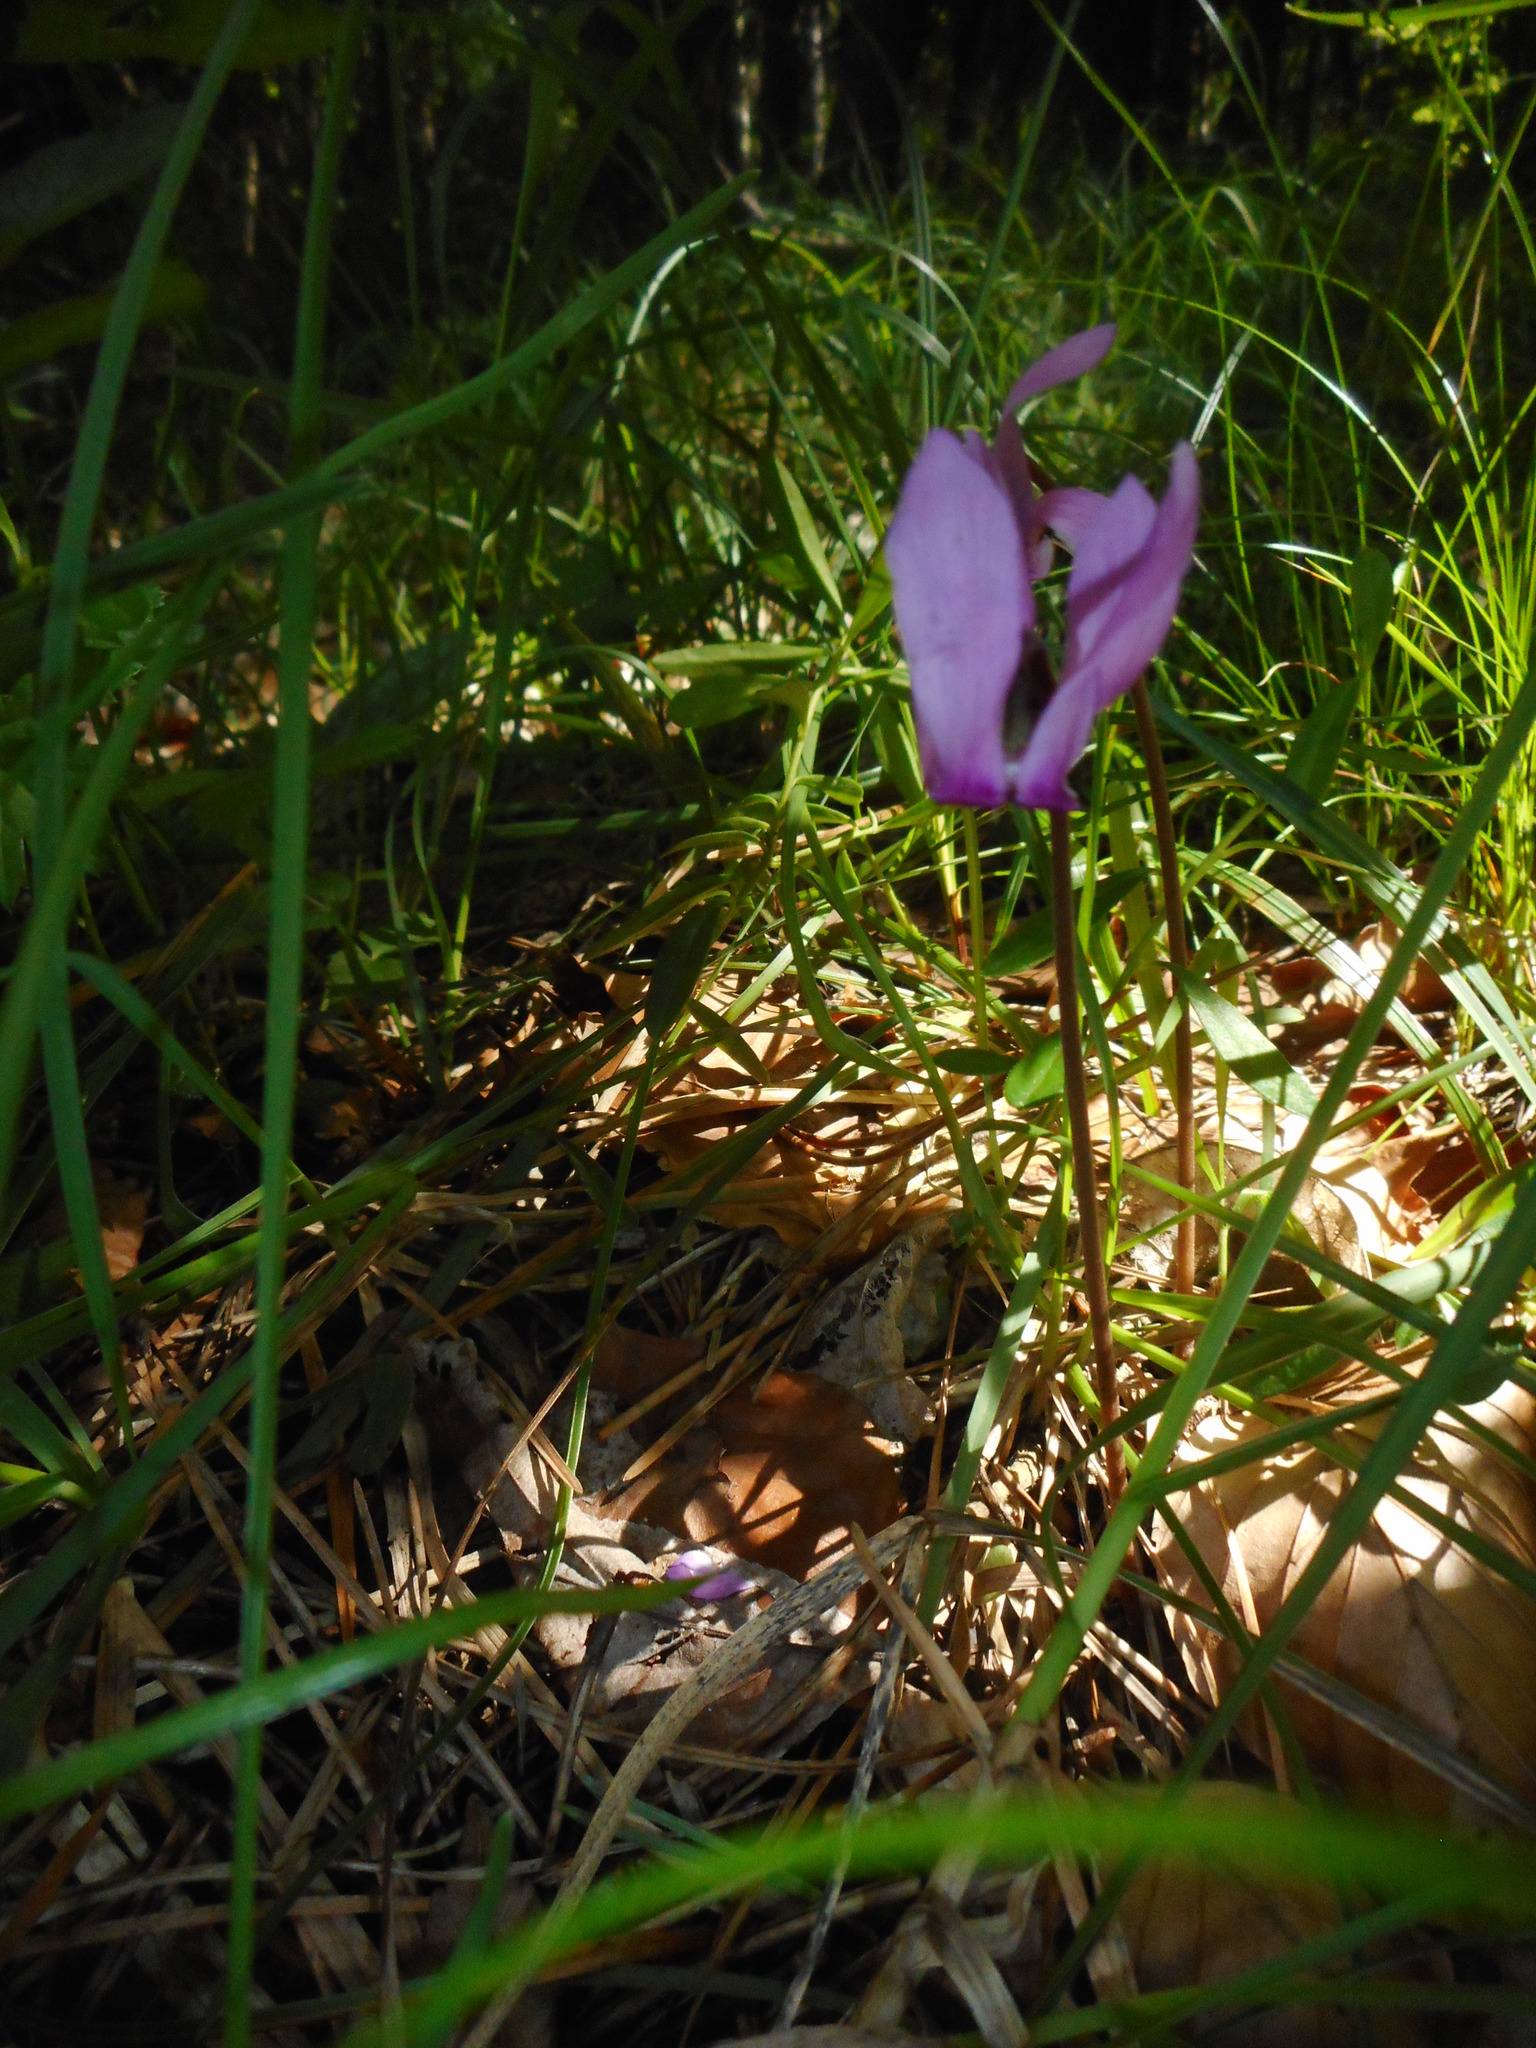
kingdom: Plantae
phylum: Tracheophyta
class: Magnoliopsida
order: Ericales
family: Primulaceae
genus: Cyclamen
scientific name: Cyclamen purpurascens
